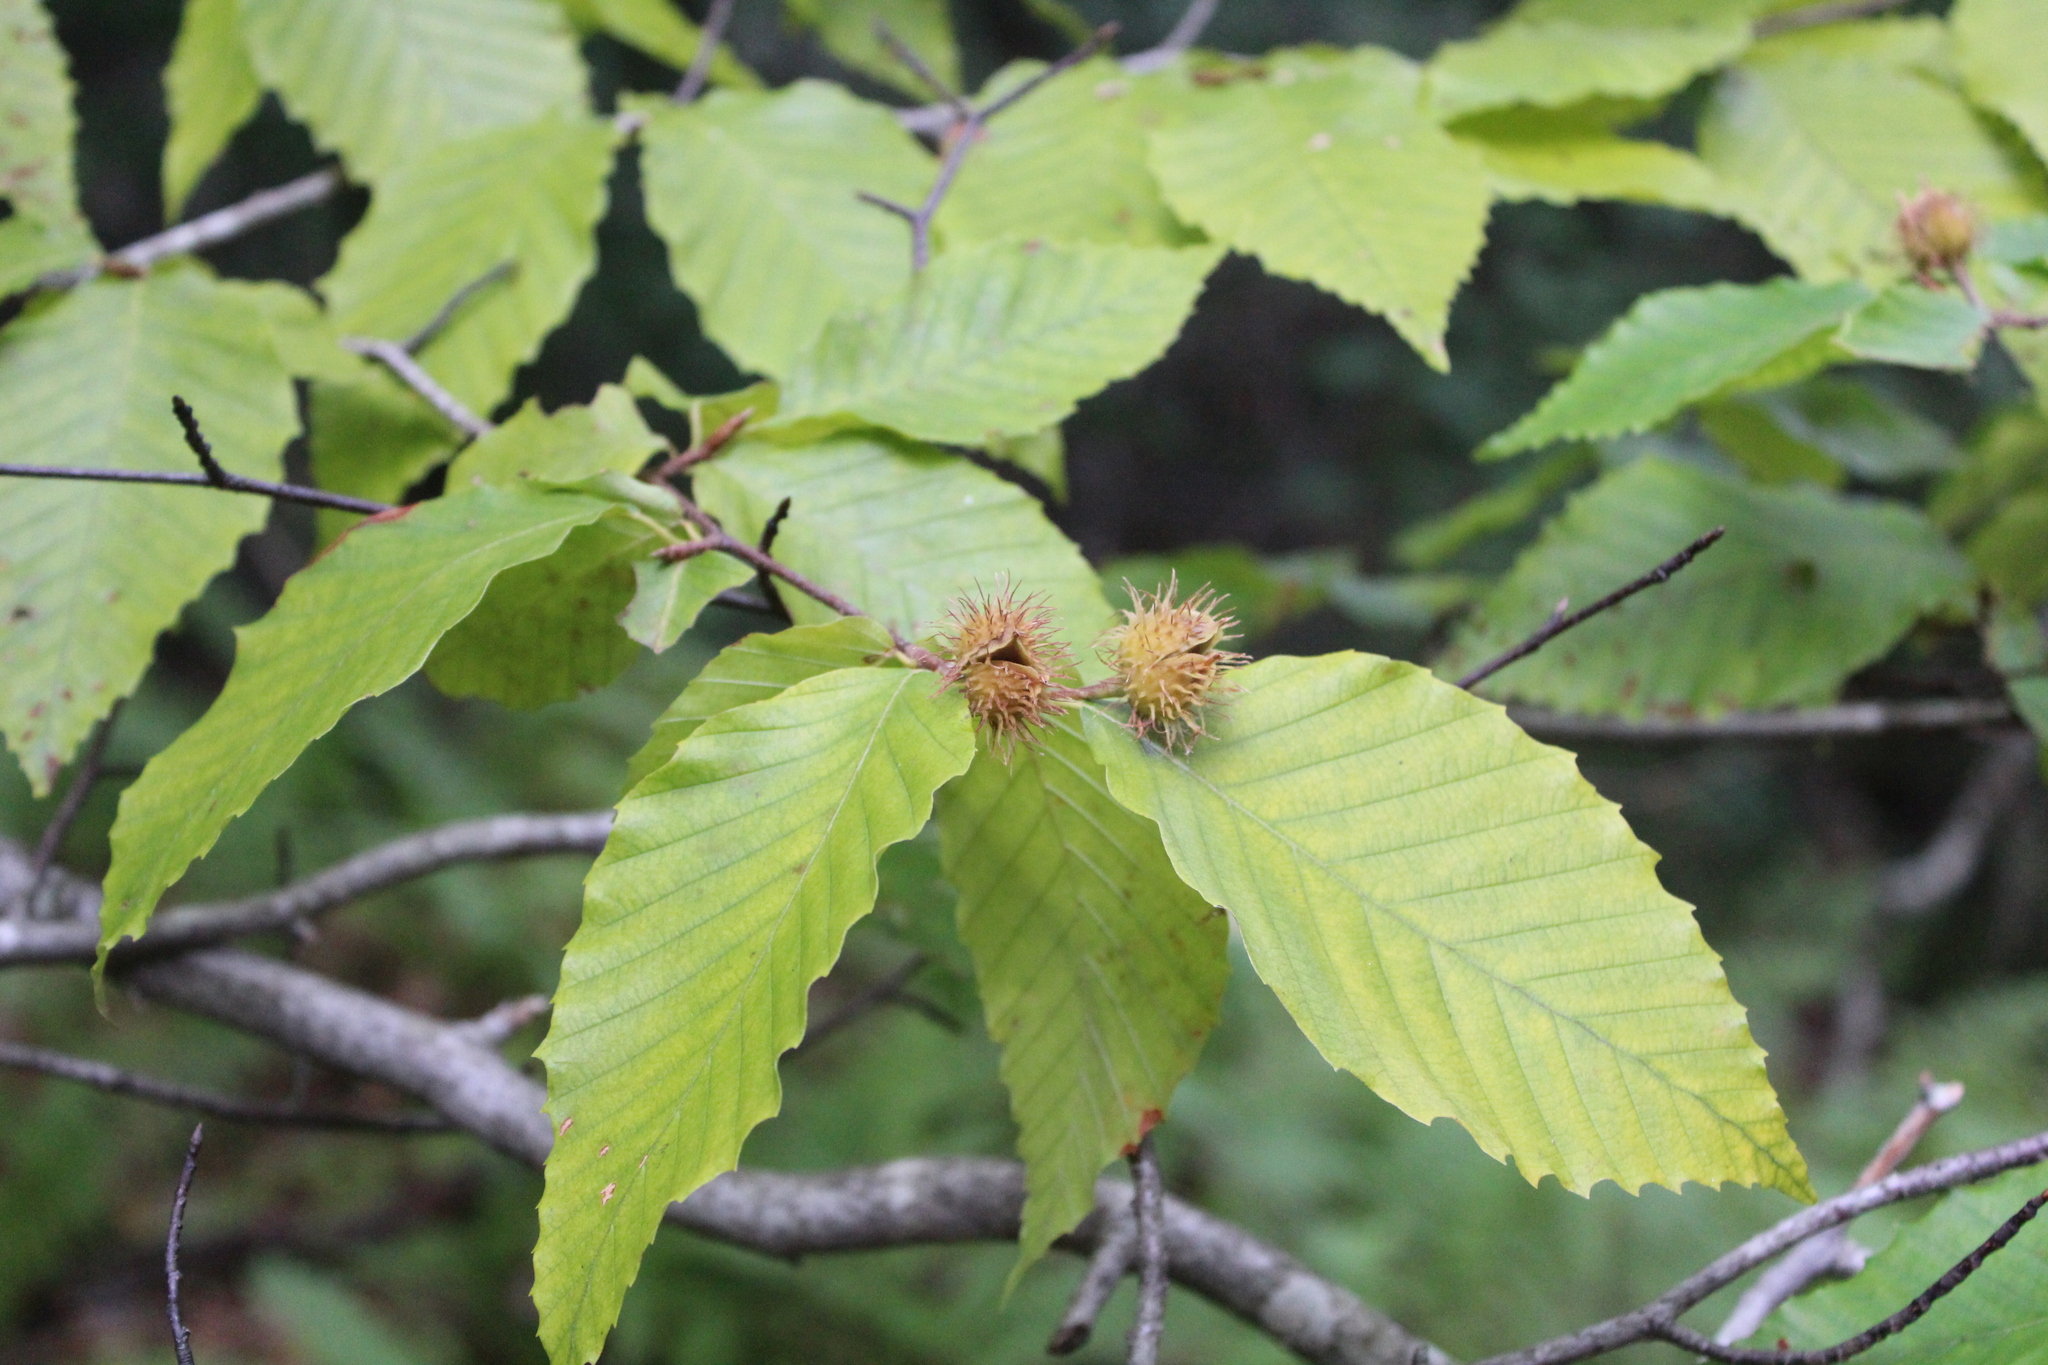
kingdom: Plantae
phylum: Tracheophyta
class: Magnoliopsida
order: Fagales
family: Fagaceae
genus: Fagus
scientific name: Fagus grandifolia
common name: American beech
